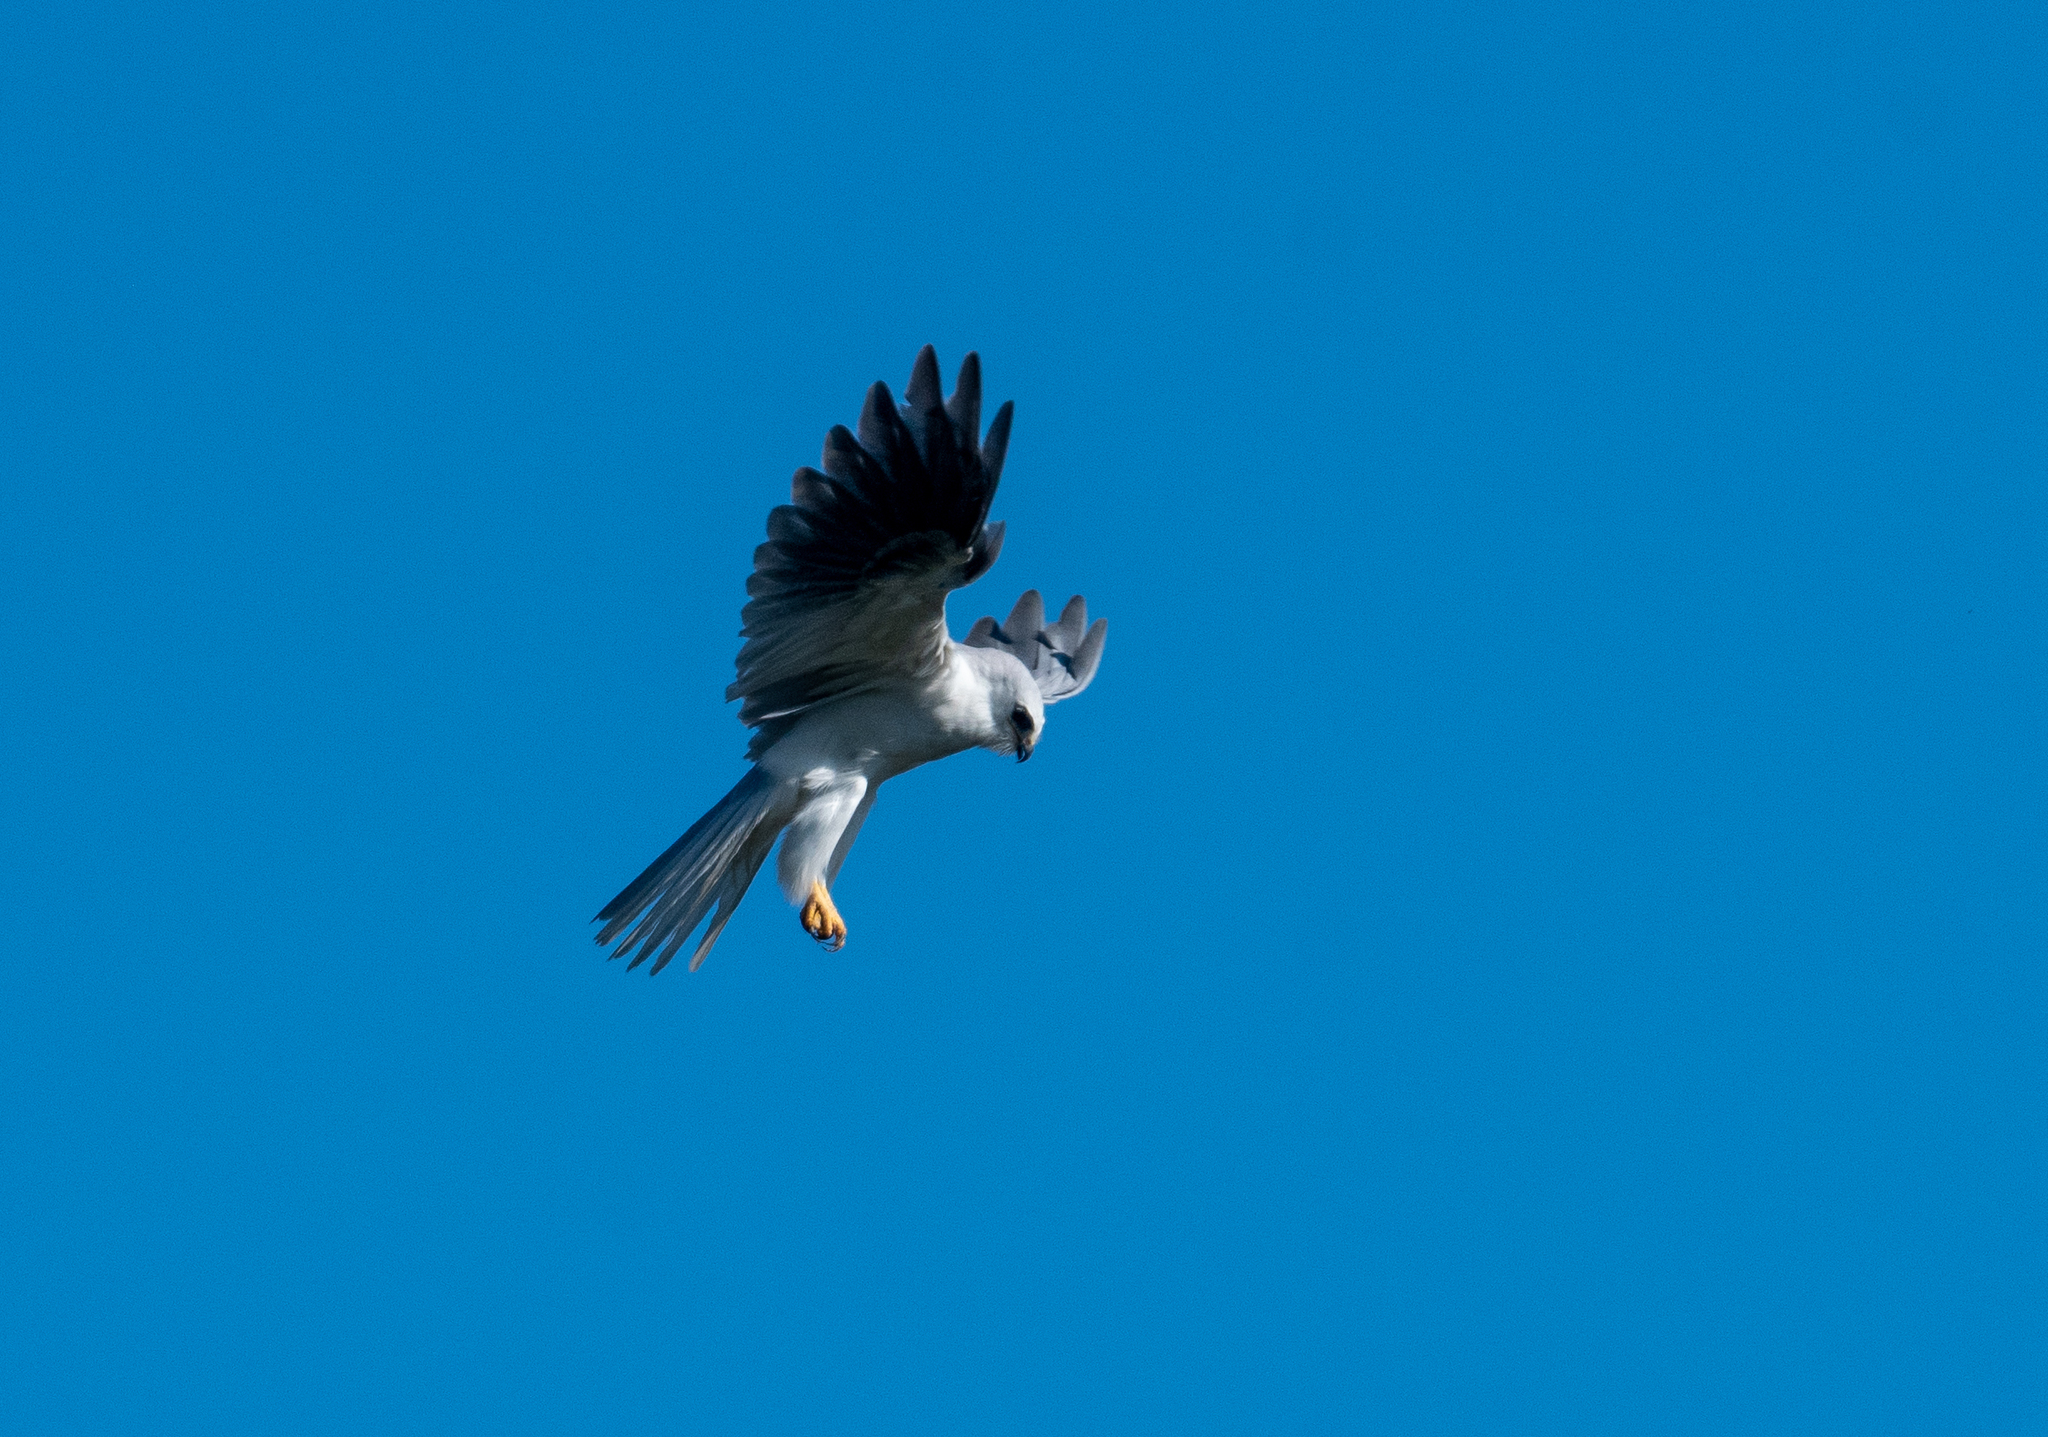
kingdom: Animalia
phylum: Chordata
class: Aves
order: Accipitriformes
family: Accipitridae
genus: Elanus
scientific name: Elanus leucurus
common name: White-tailed kite
